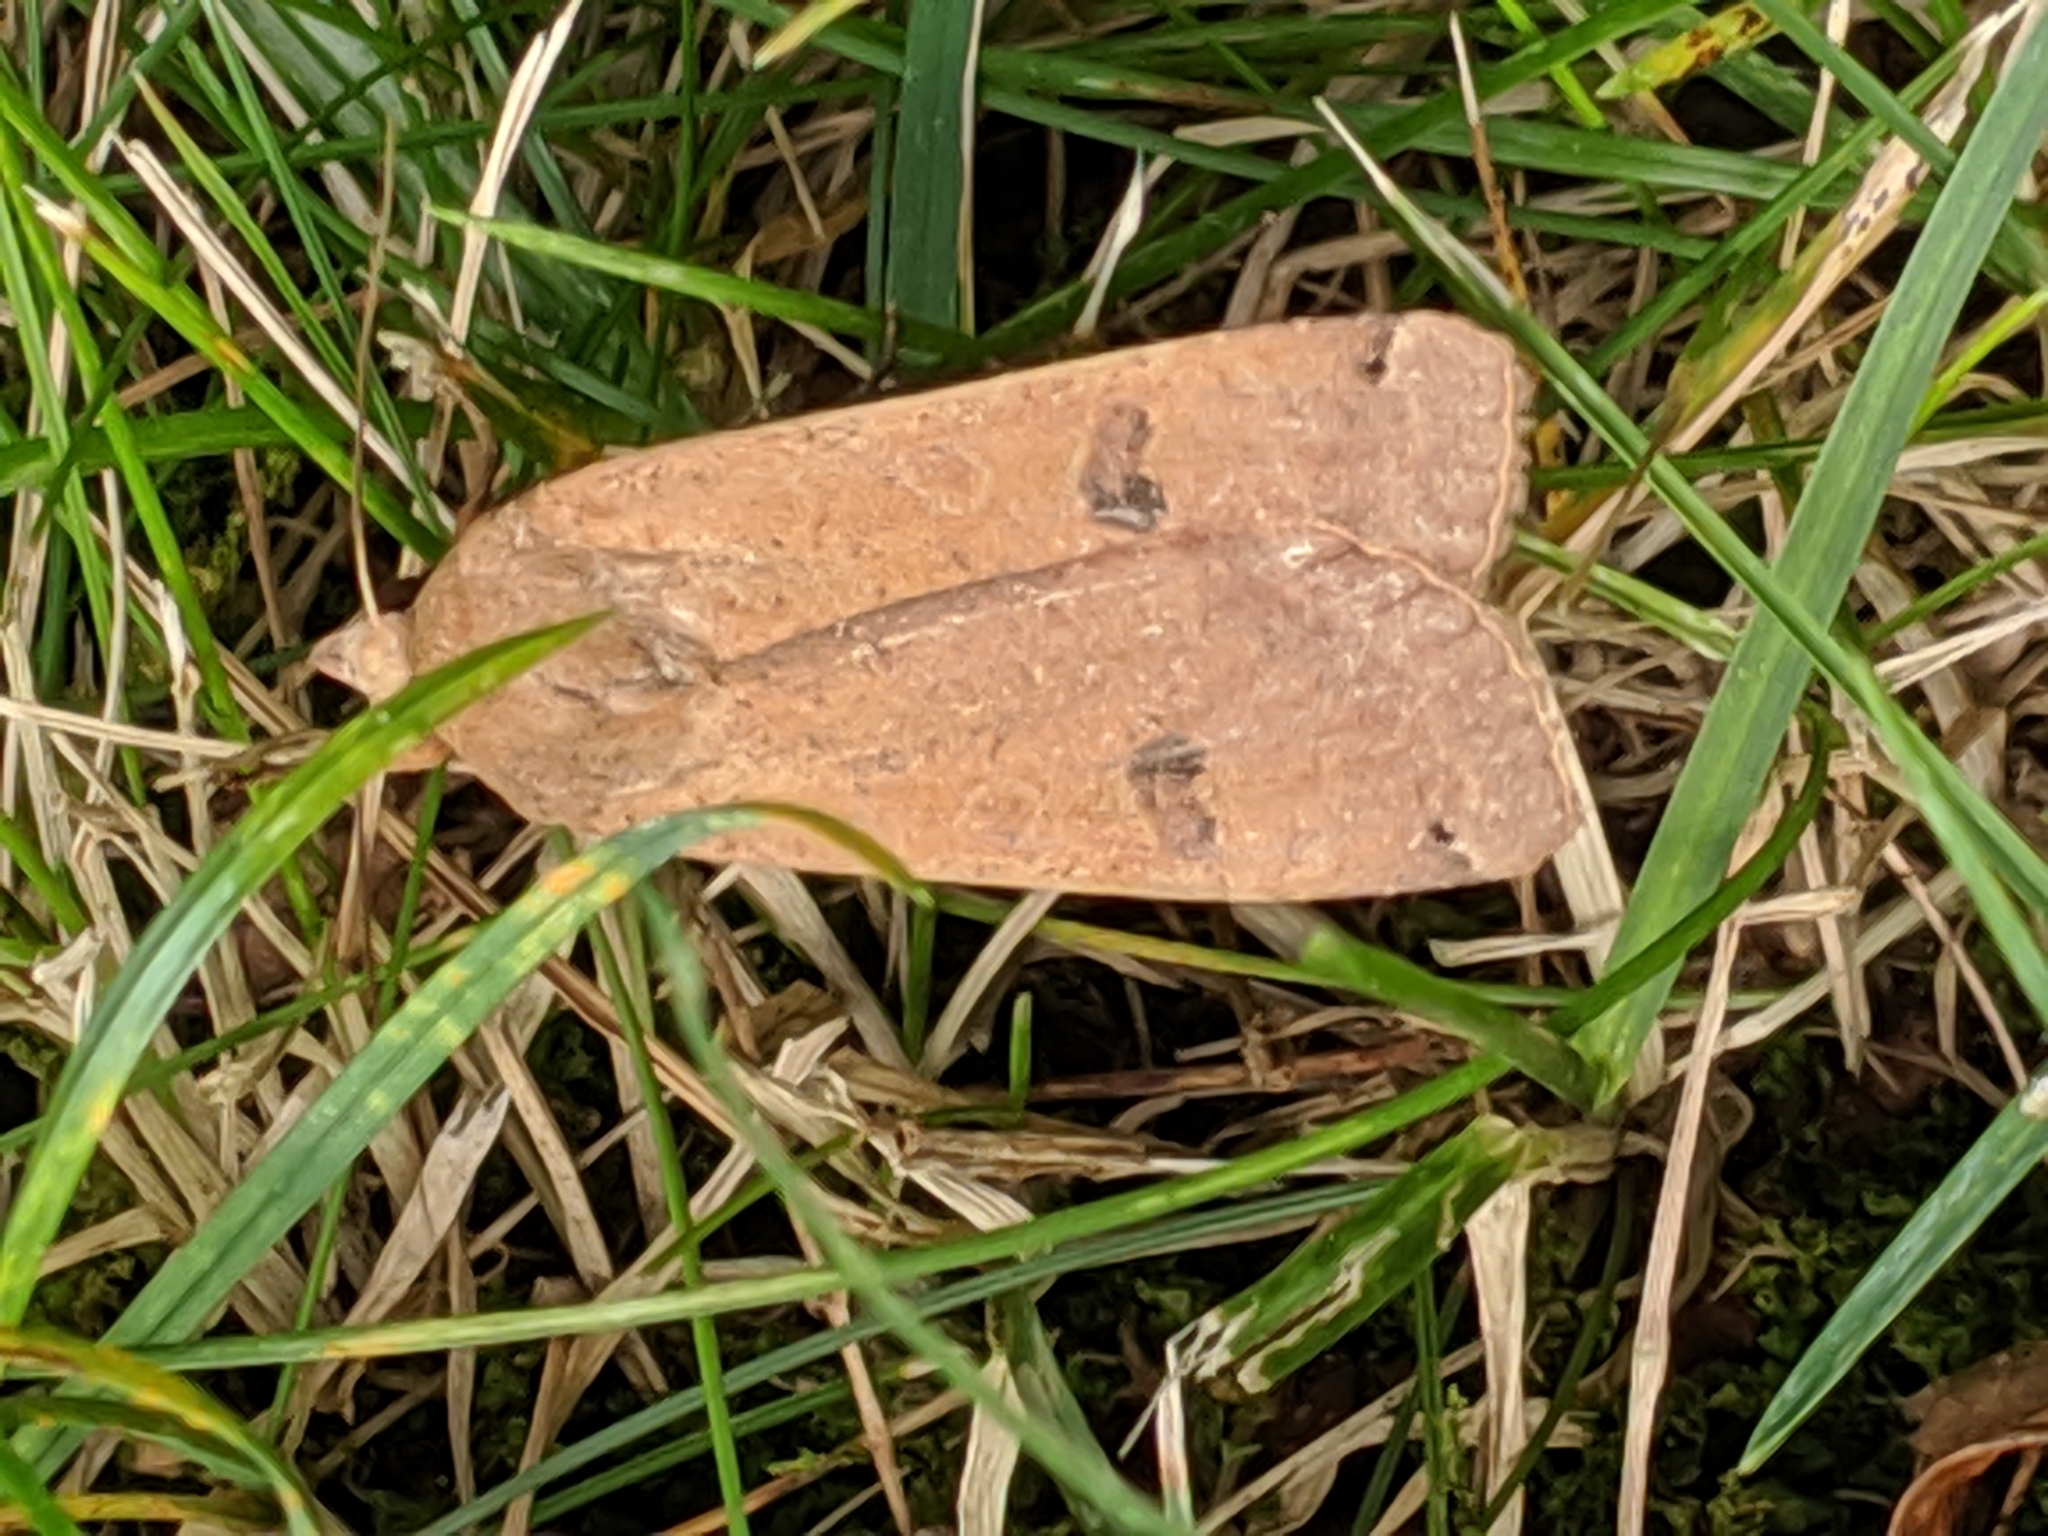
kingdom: Animalia
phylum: Arthropoda
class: Insecta
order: Lepidoptera
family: Noctuidae
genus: Noctua
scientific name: Noctua pronuba
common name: Large yellow underwing
